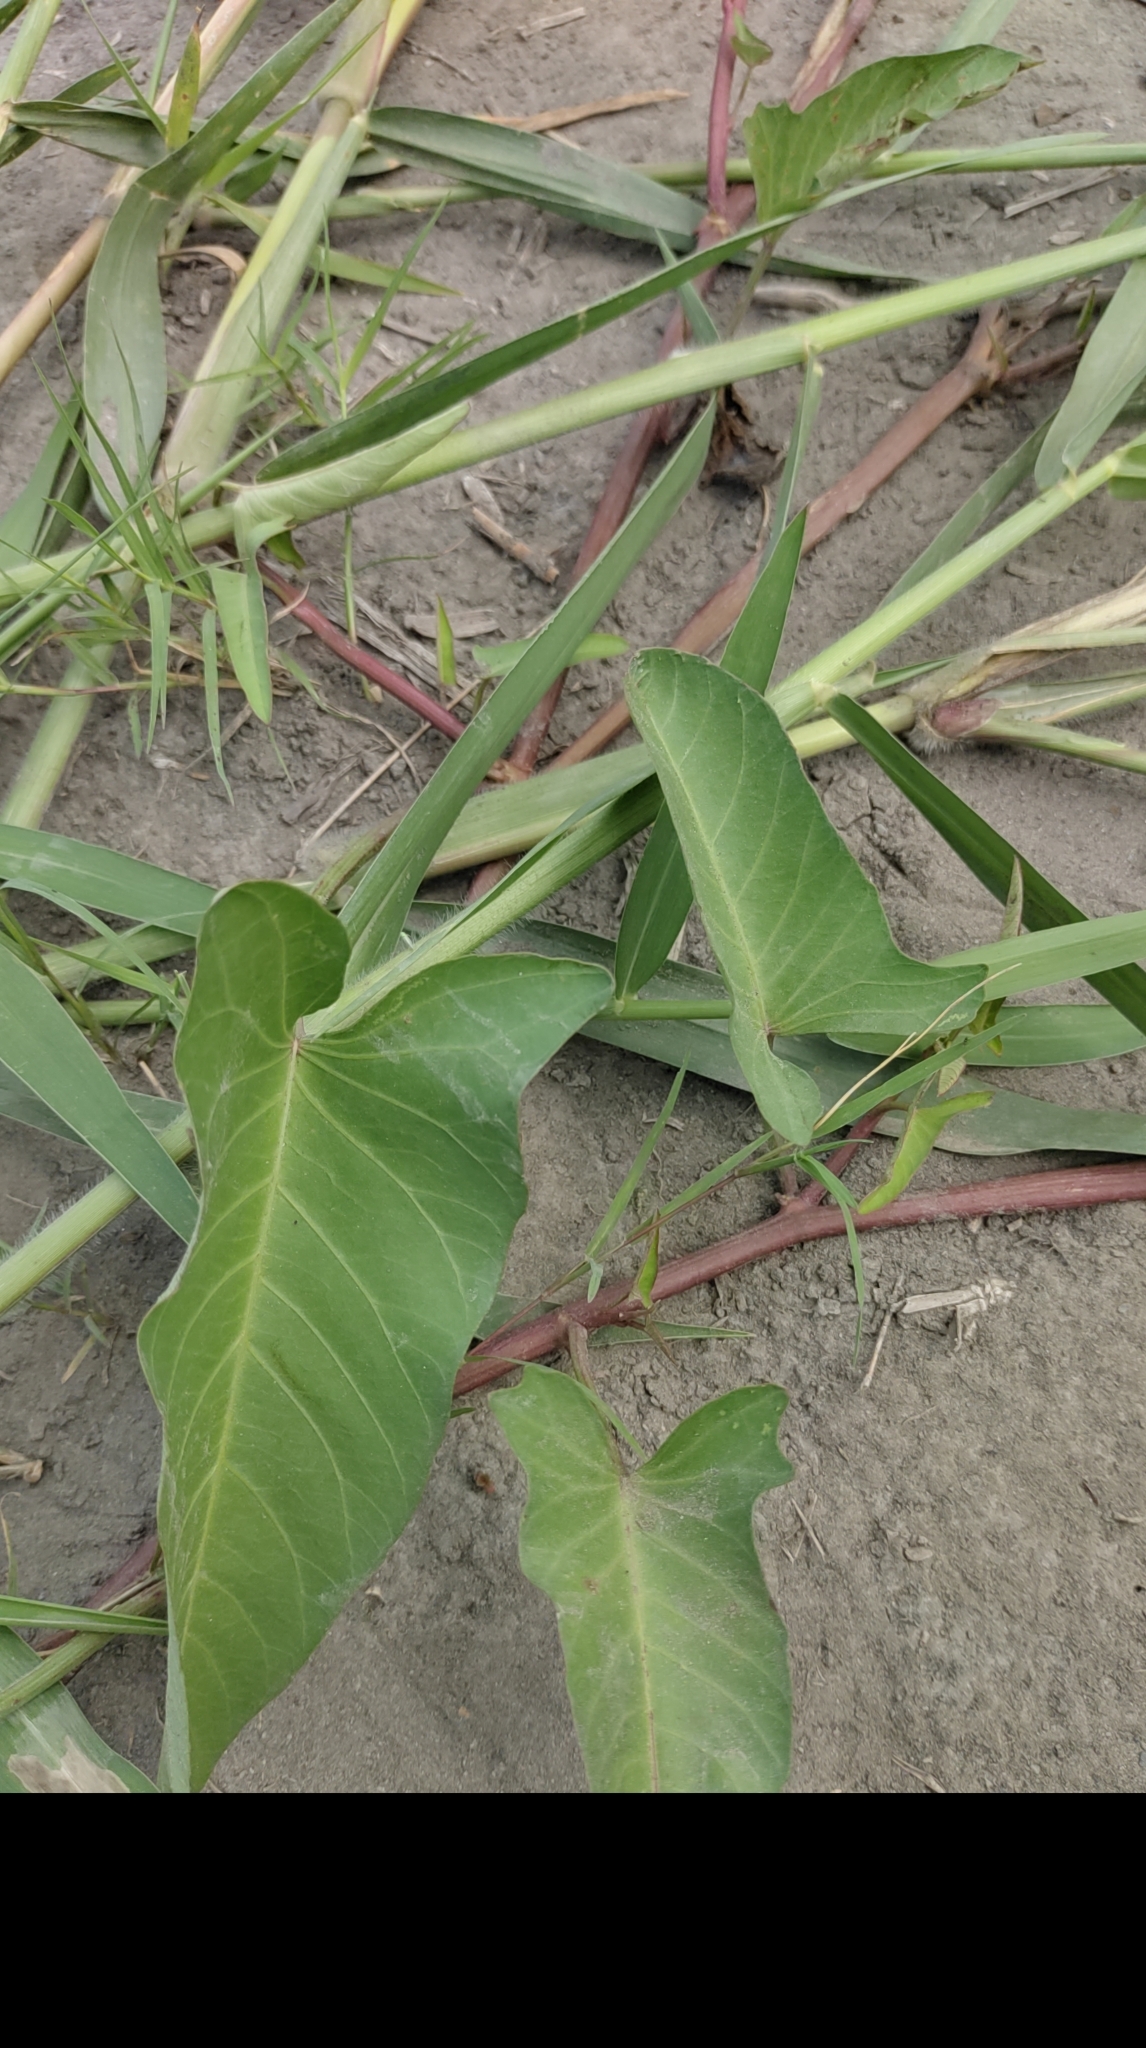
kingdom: Plantae
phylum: Tracheophyta
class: Magnoliopsida
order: Solanales
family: Convolvulaceae
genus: Ipomoea
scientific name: Ipomoea aquatica
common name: Swamp morning-glory
